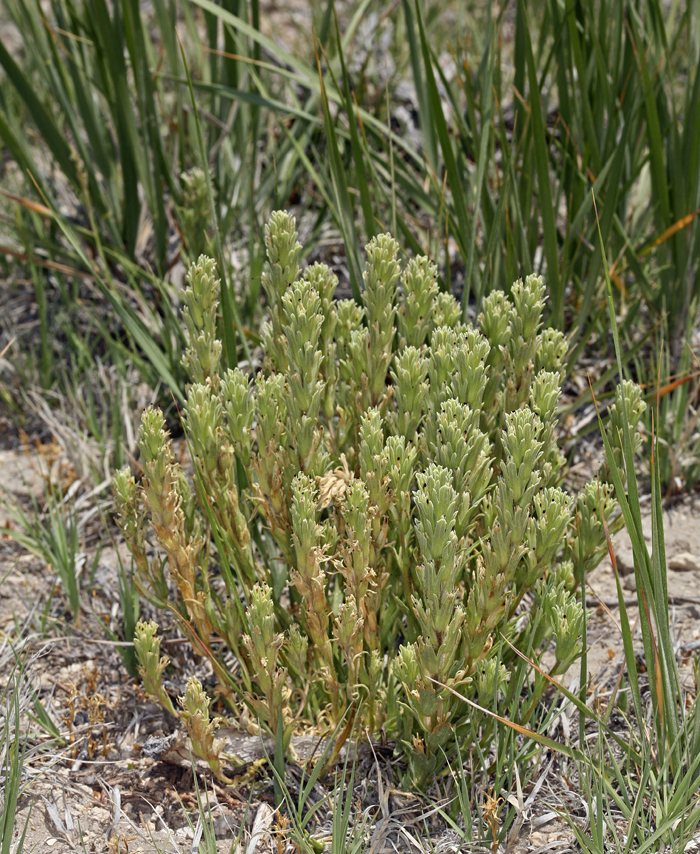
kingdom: Plantae
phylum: Tracheophyta
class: Magnoliopsida
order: Lamiales
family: Orobanchaceae
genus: Castilleja
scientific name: Castilleja pilosa
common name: Hairy paintbrush
